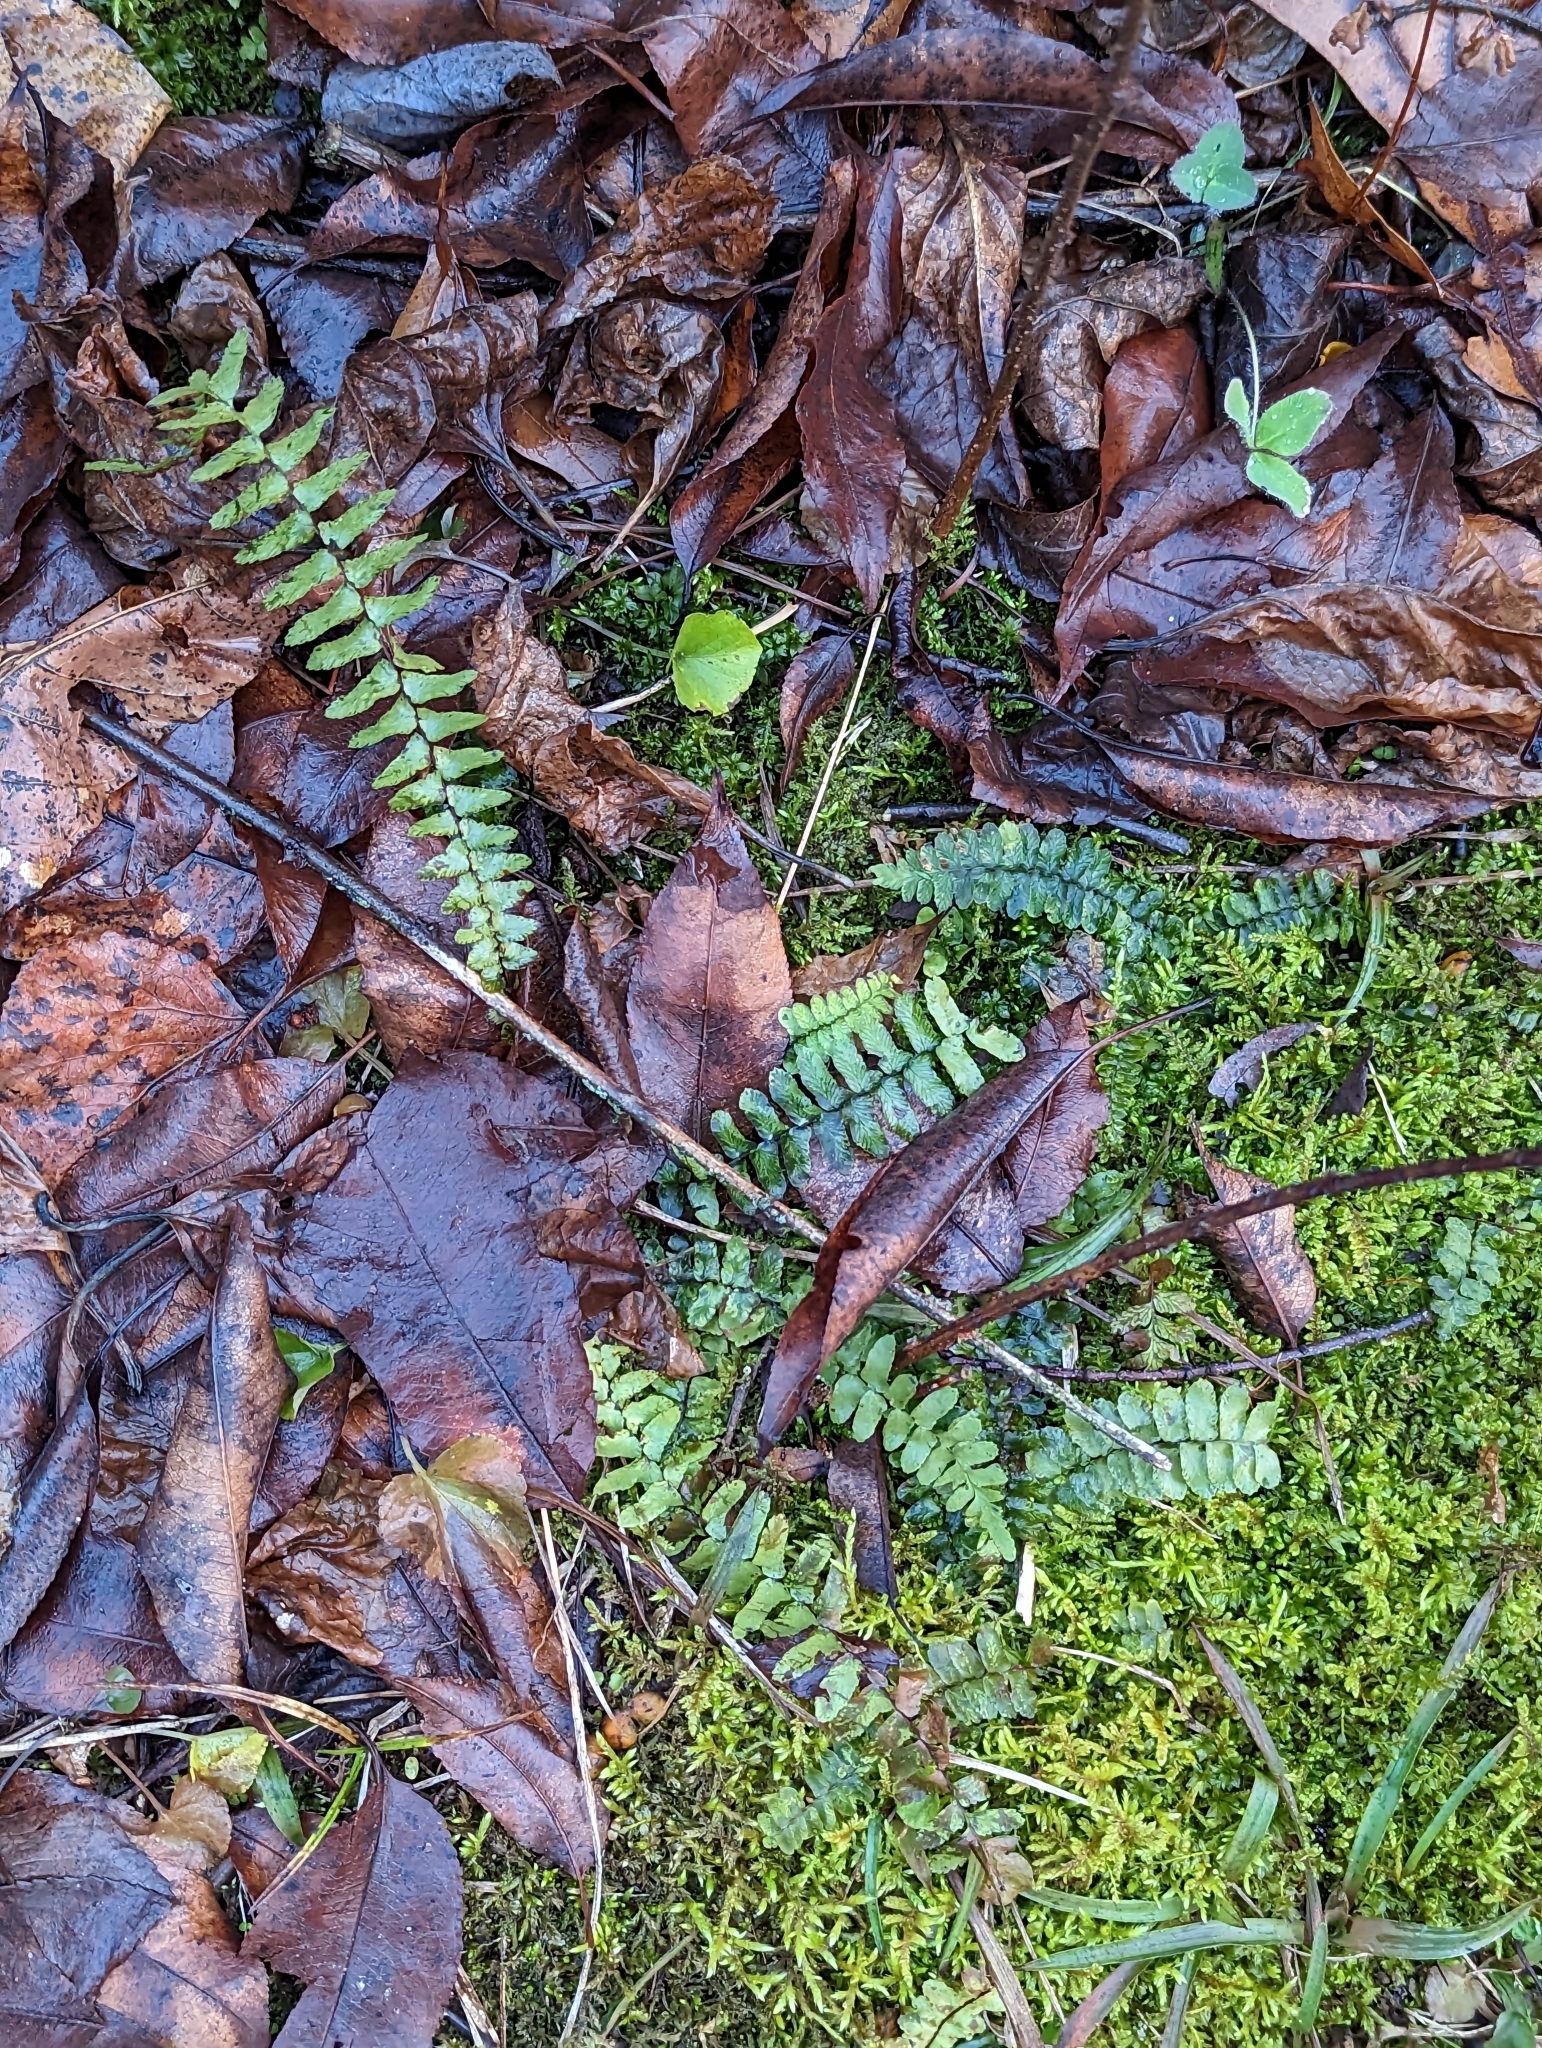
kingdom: Plantae
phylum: Tracheophyta
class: Polypodiopsida
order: Polypodiales
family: Aspleniaceae
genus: Asplenium
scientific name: Asplenium platyneuron
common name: Ebony spleenwort
